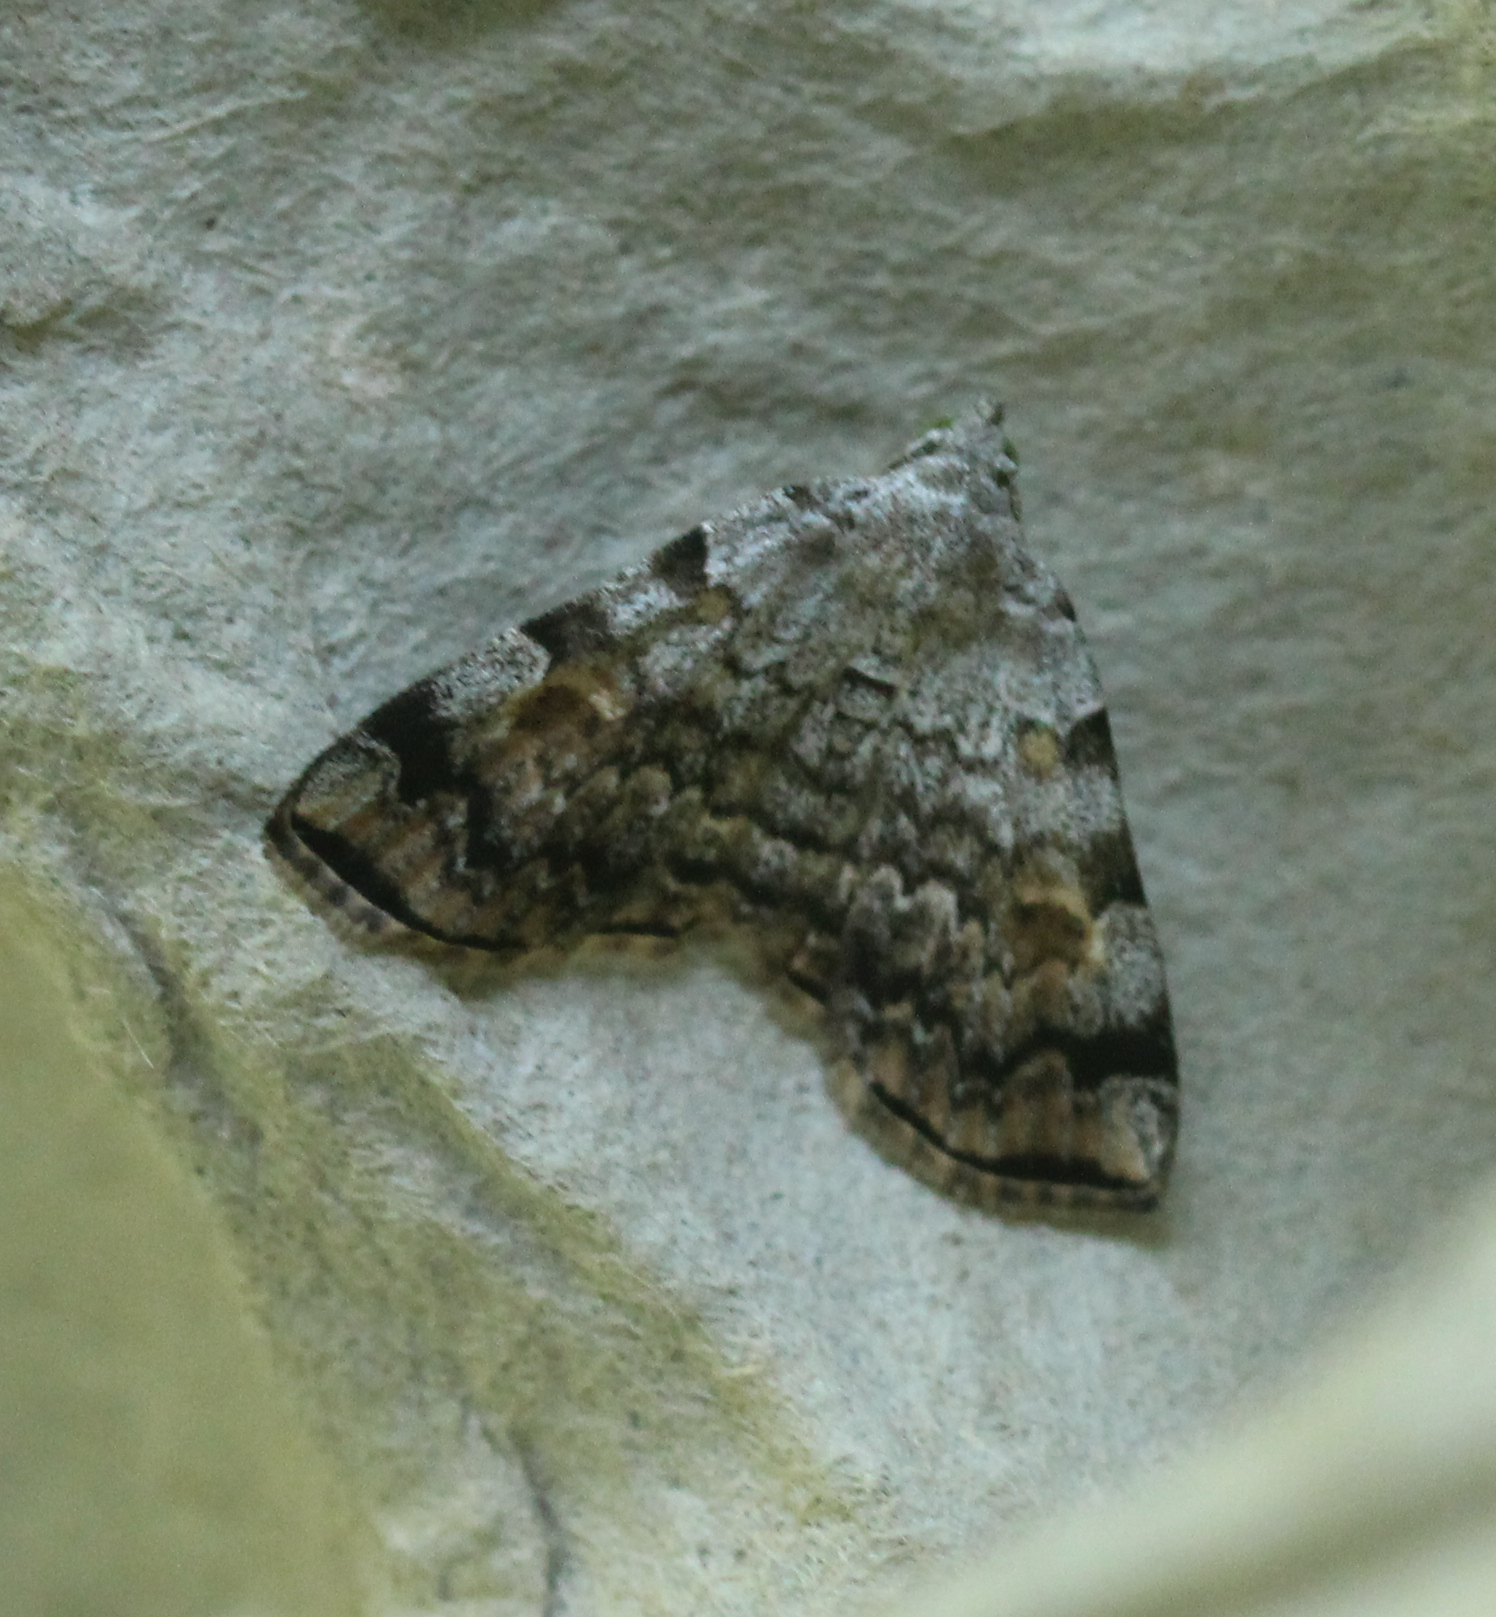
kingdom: Animalia
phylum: Arthropoda
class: Insecta
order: Lepidoptera
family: Erebidae
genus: Idia
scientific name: Idia americalis
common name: American idia moth
